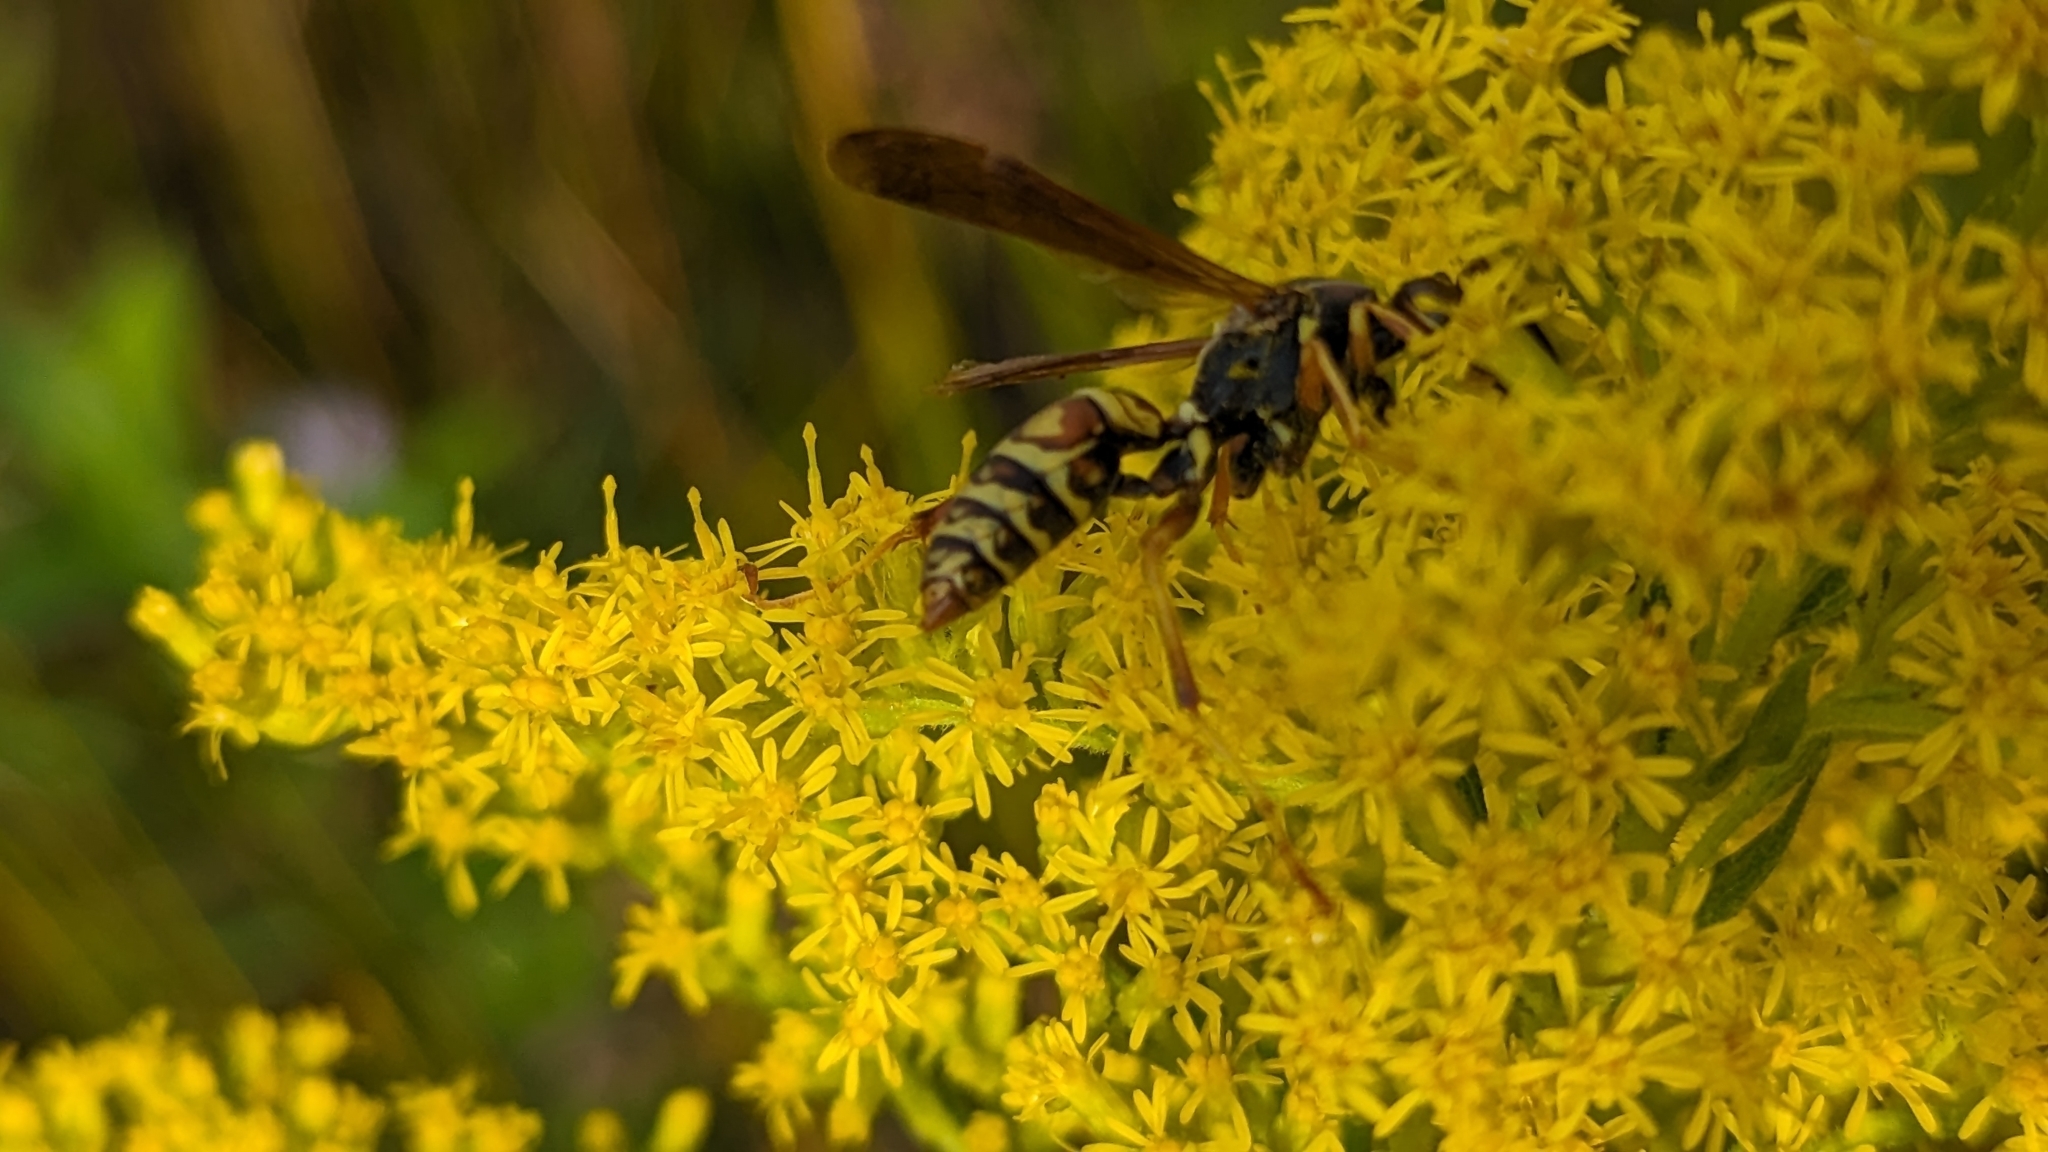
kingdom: Animalia
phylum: Arthropoda
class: Insecta
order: Hymenoptera
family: Eumenidae
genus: Polistes
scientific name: Polistes fuscatus
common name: Dark paper wasp
